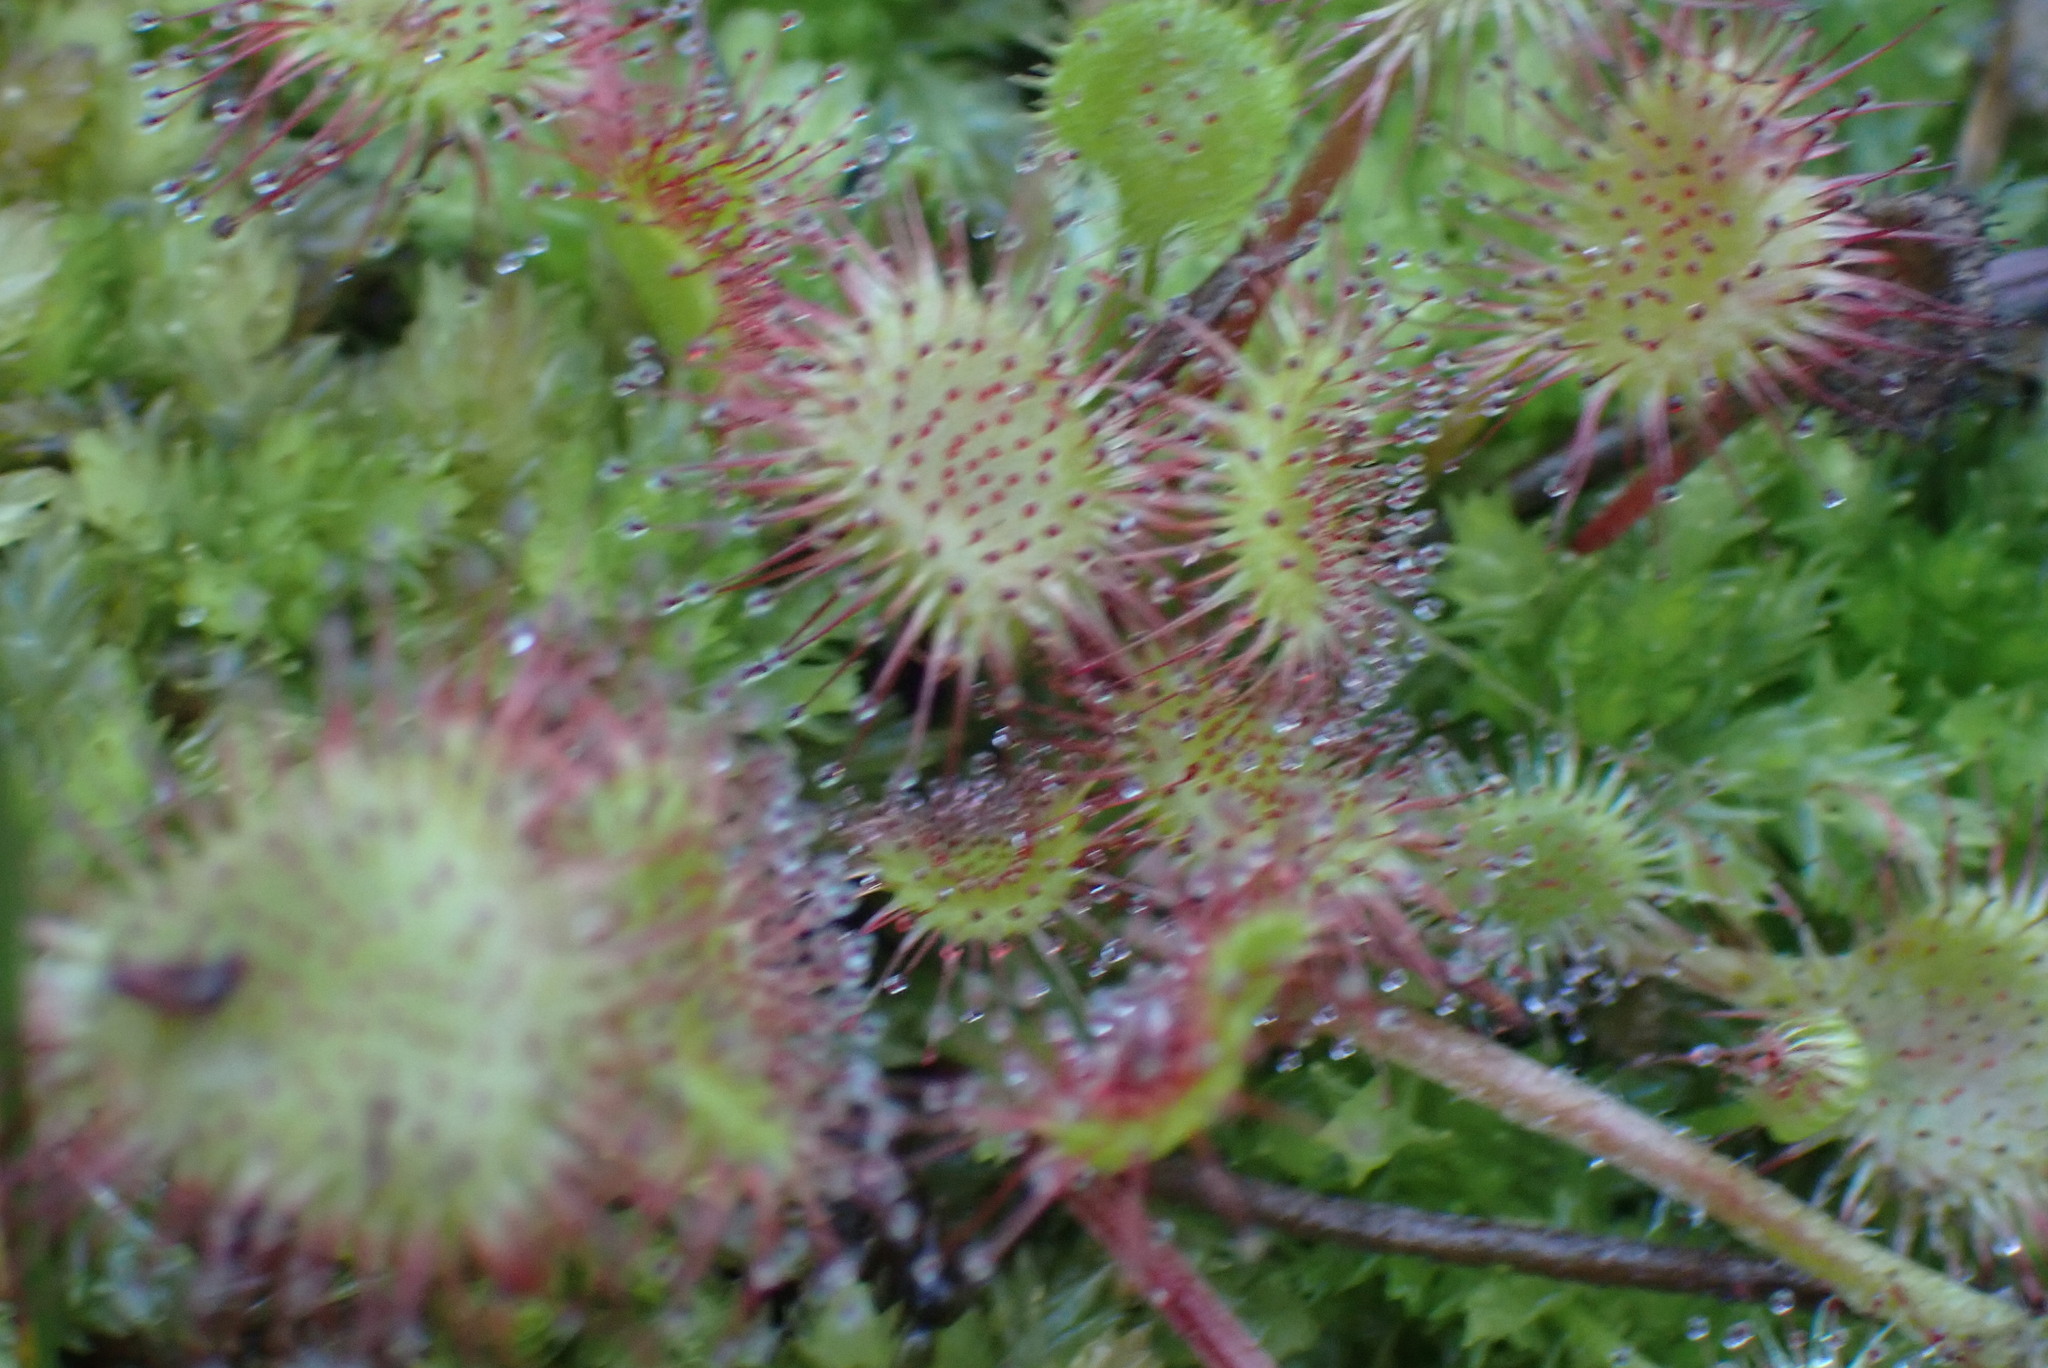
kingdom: Plantae
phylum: Tracheophyta
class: Magnoliopsida
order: Caryophyllales
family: Droseraceae
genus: Drosera
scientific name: Drosera rotundifolia
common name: Round-leaved sundew
